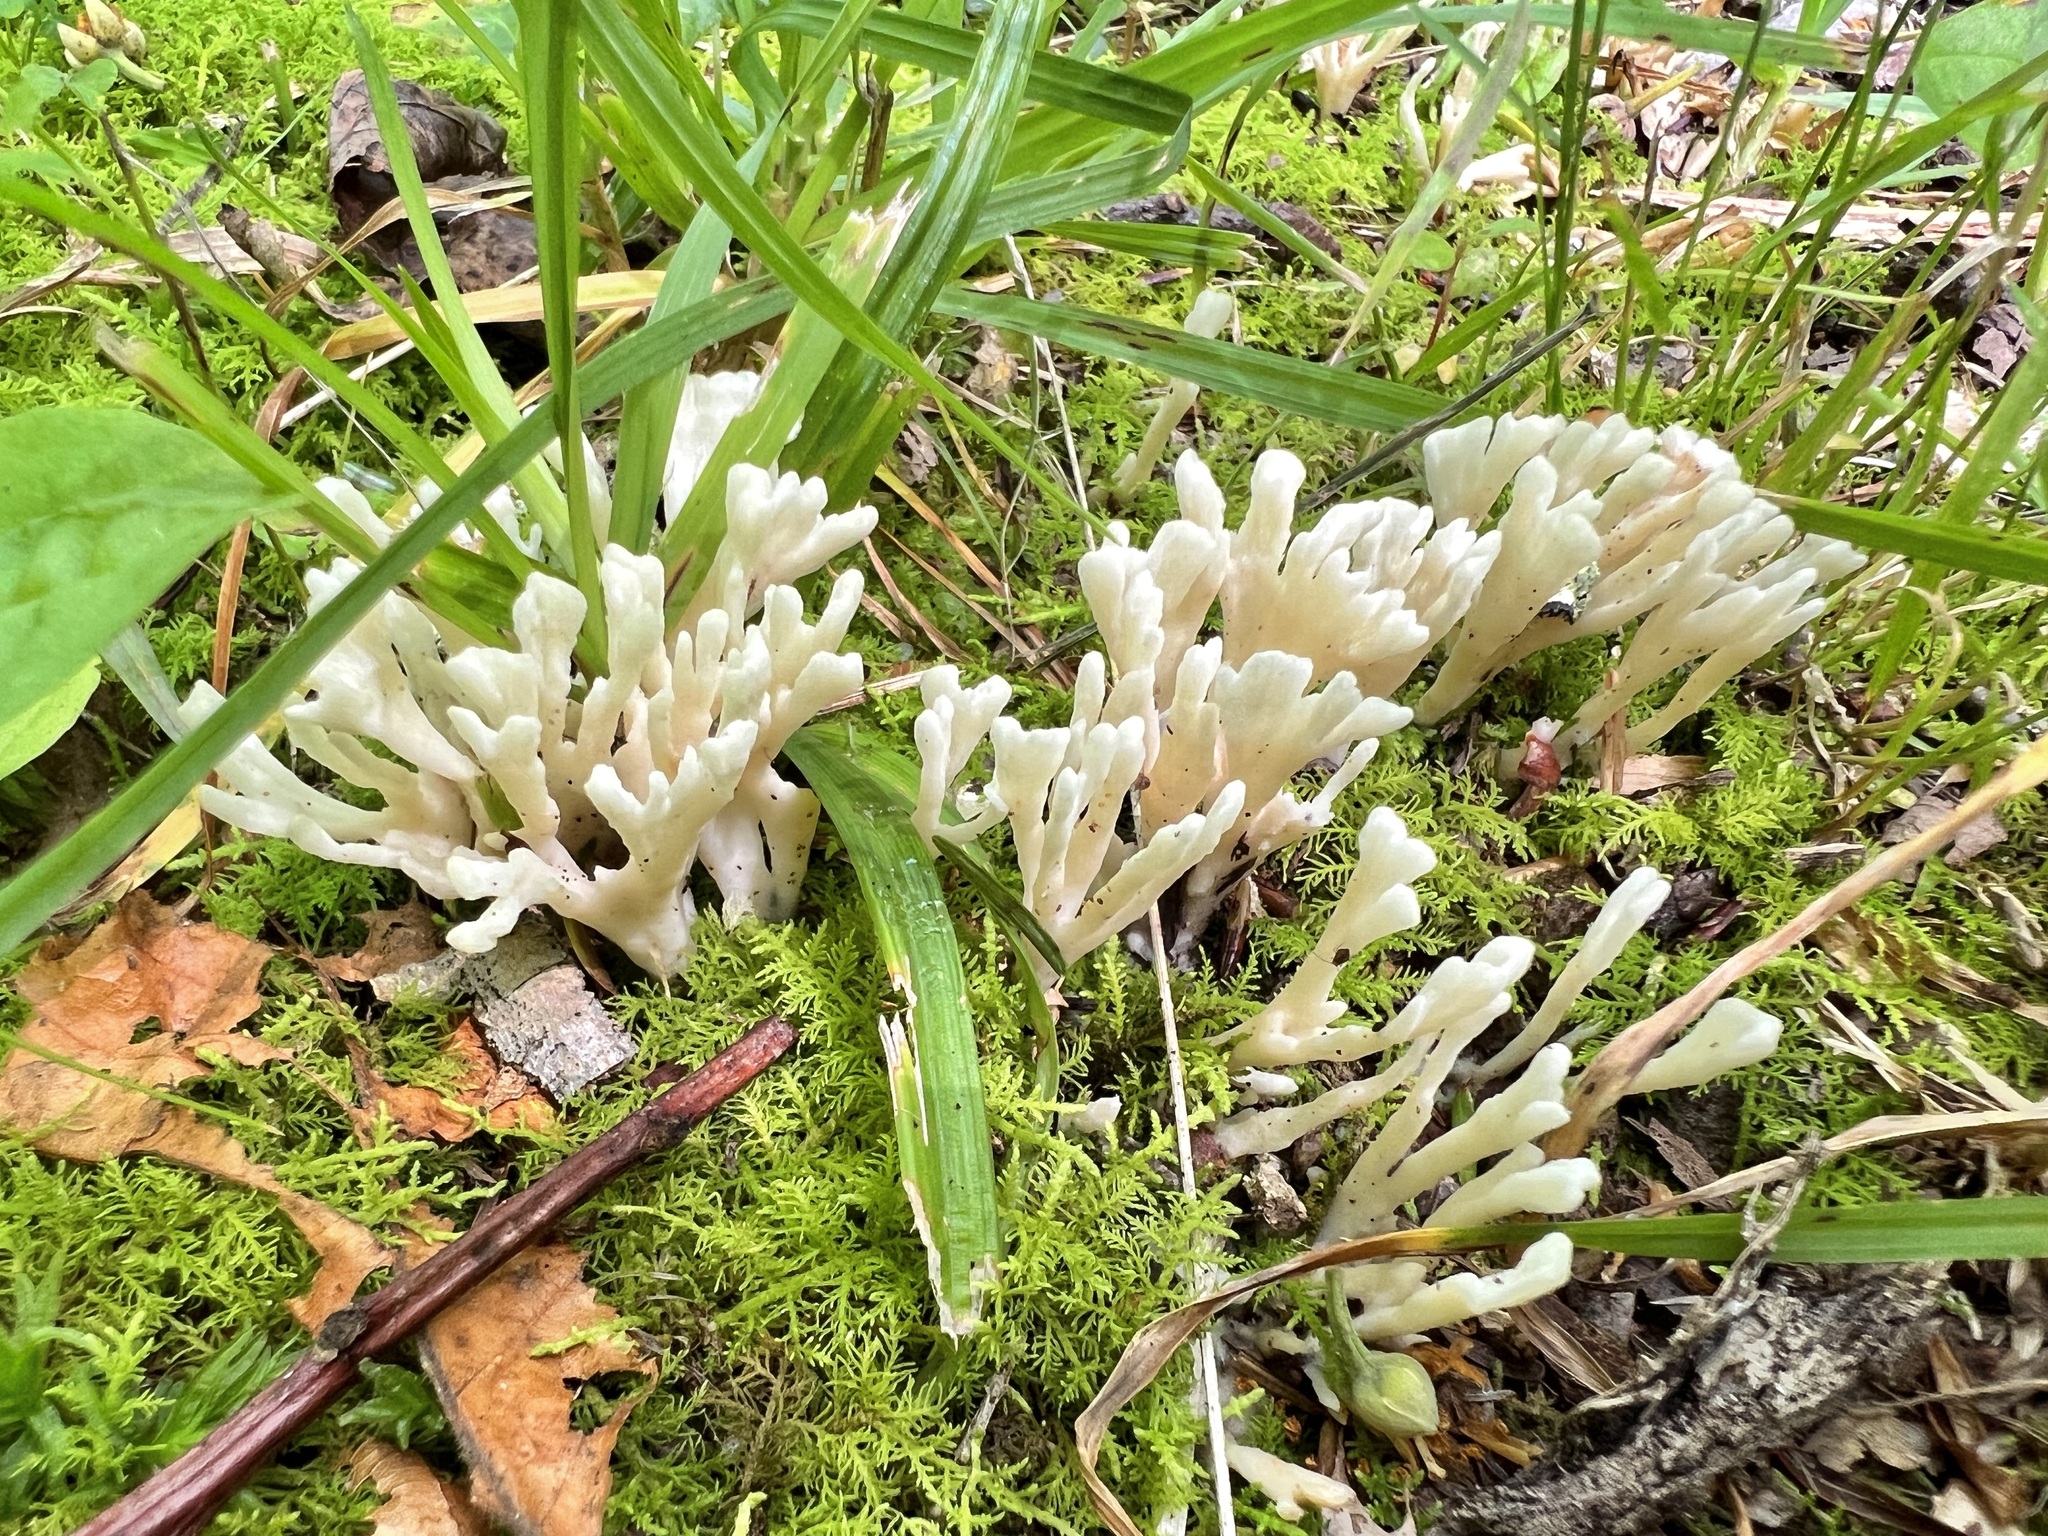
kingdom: Fungi
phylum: Basidiomycota
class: Agaricomycetes
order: Sebacinales
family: Sebacinaceae
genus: Sebacina
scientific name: Sebacina schweinitzii
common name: Jellied false coral fungus
